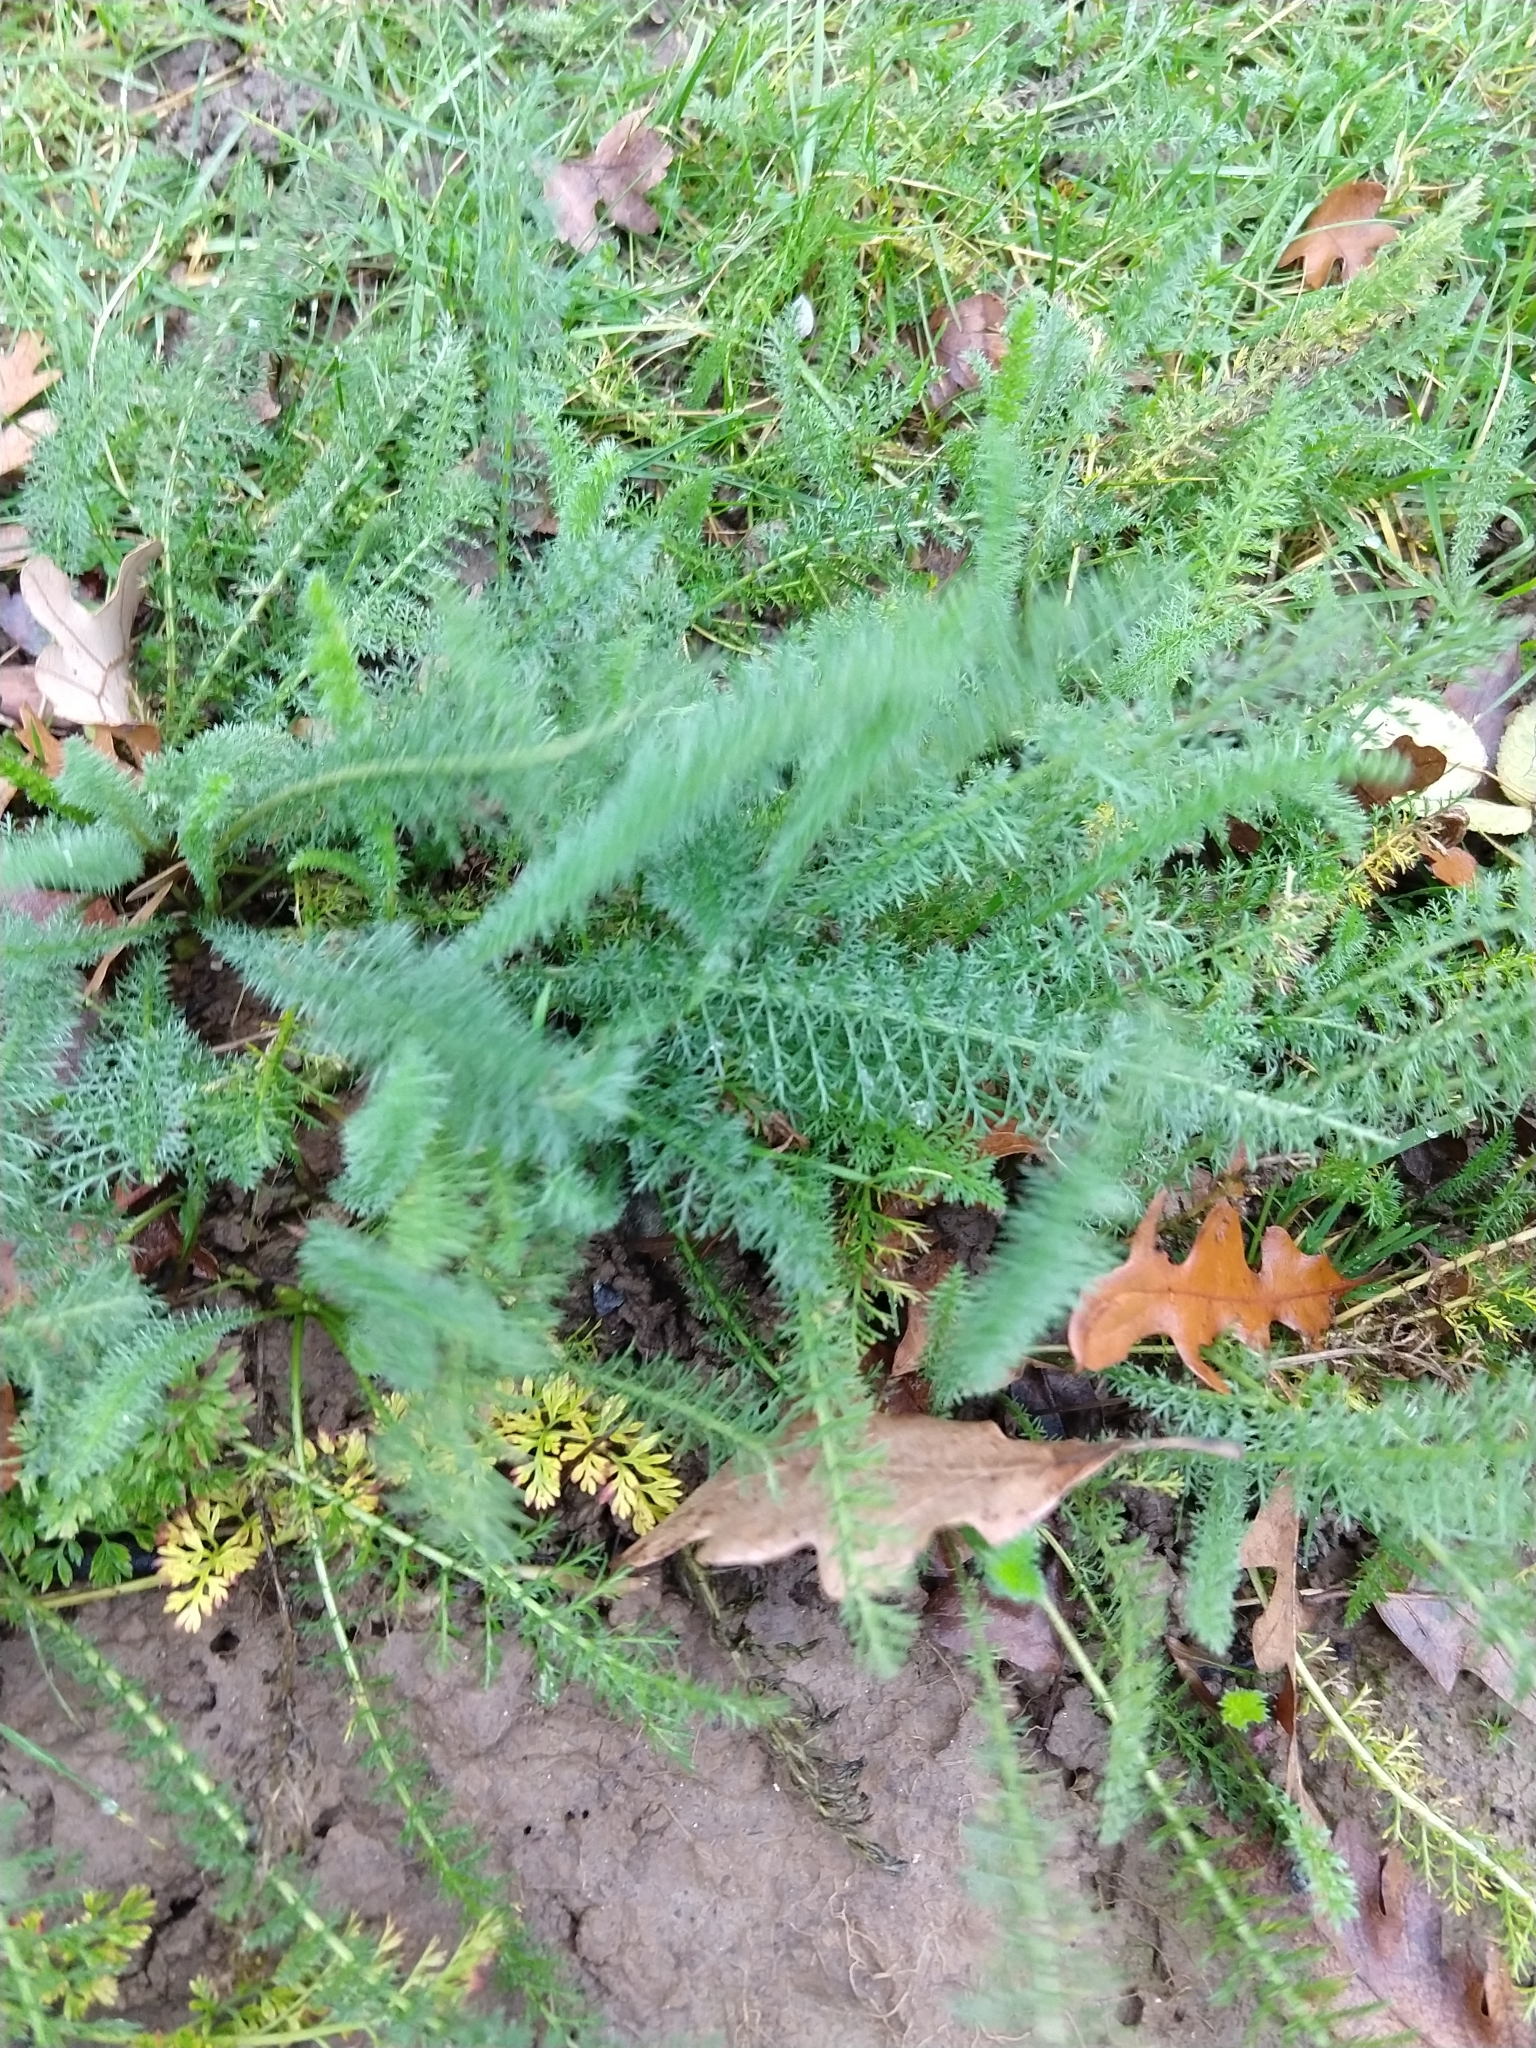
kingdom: Plantae
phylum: Tracheophyta
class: Magnoliopsida
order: Asterales
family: Asteraceae
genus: Achillea
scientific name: Achillea millefolium
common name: Yarrow
